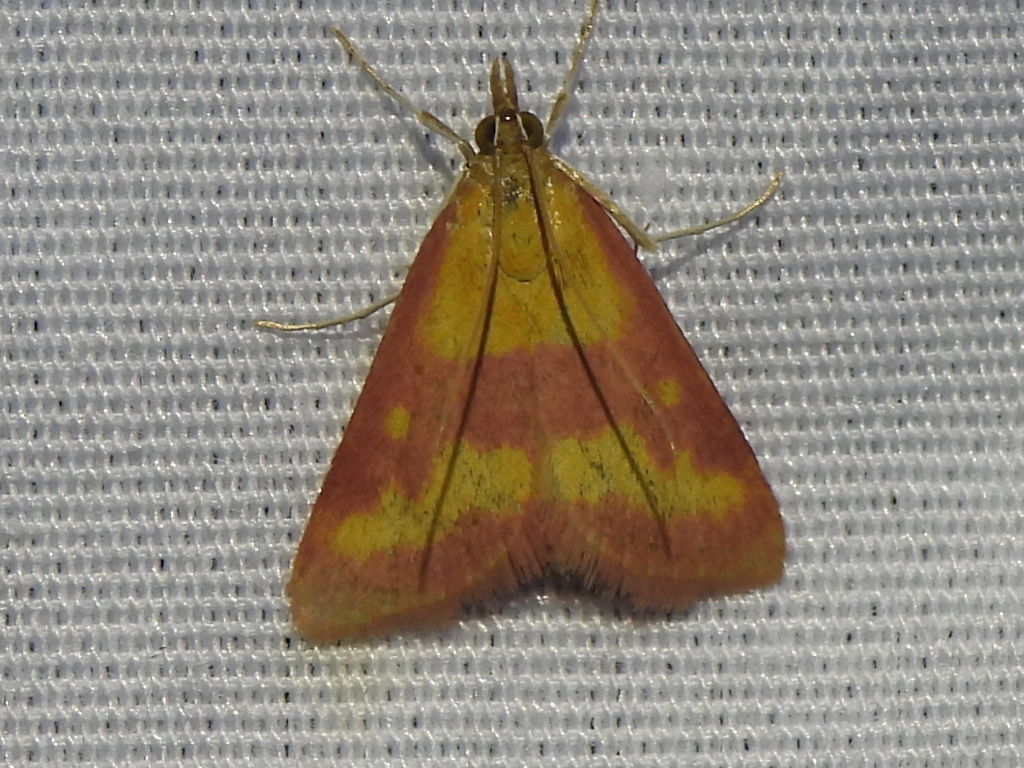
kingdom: Animalia
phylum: Arthropoda
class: Insecta
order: Lepidoptera
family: Crambidae
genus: Pyrausta
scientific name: Pyrausta laticlavia
